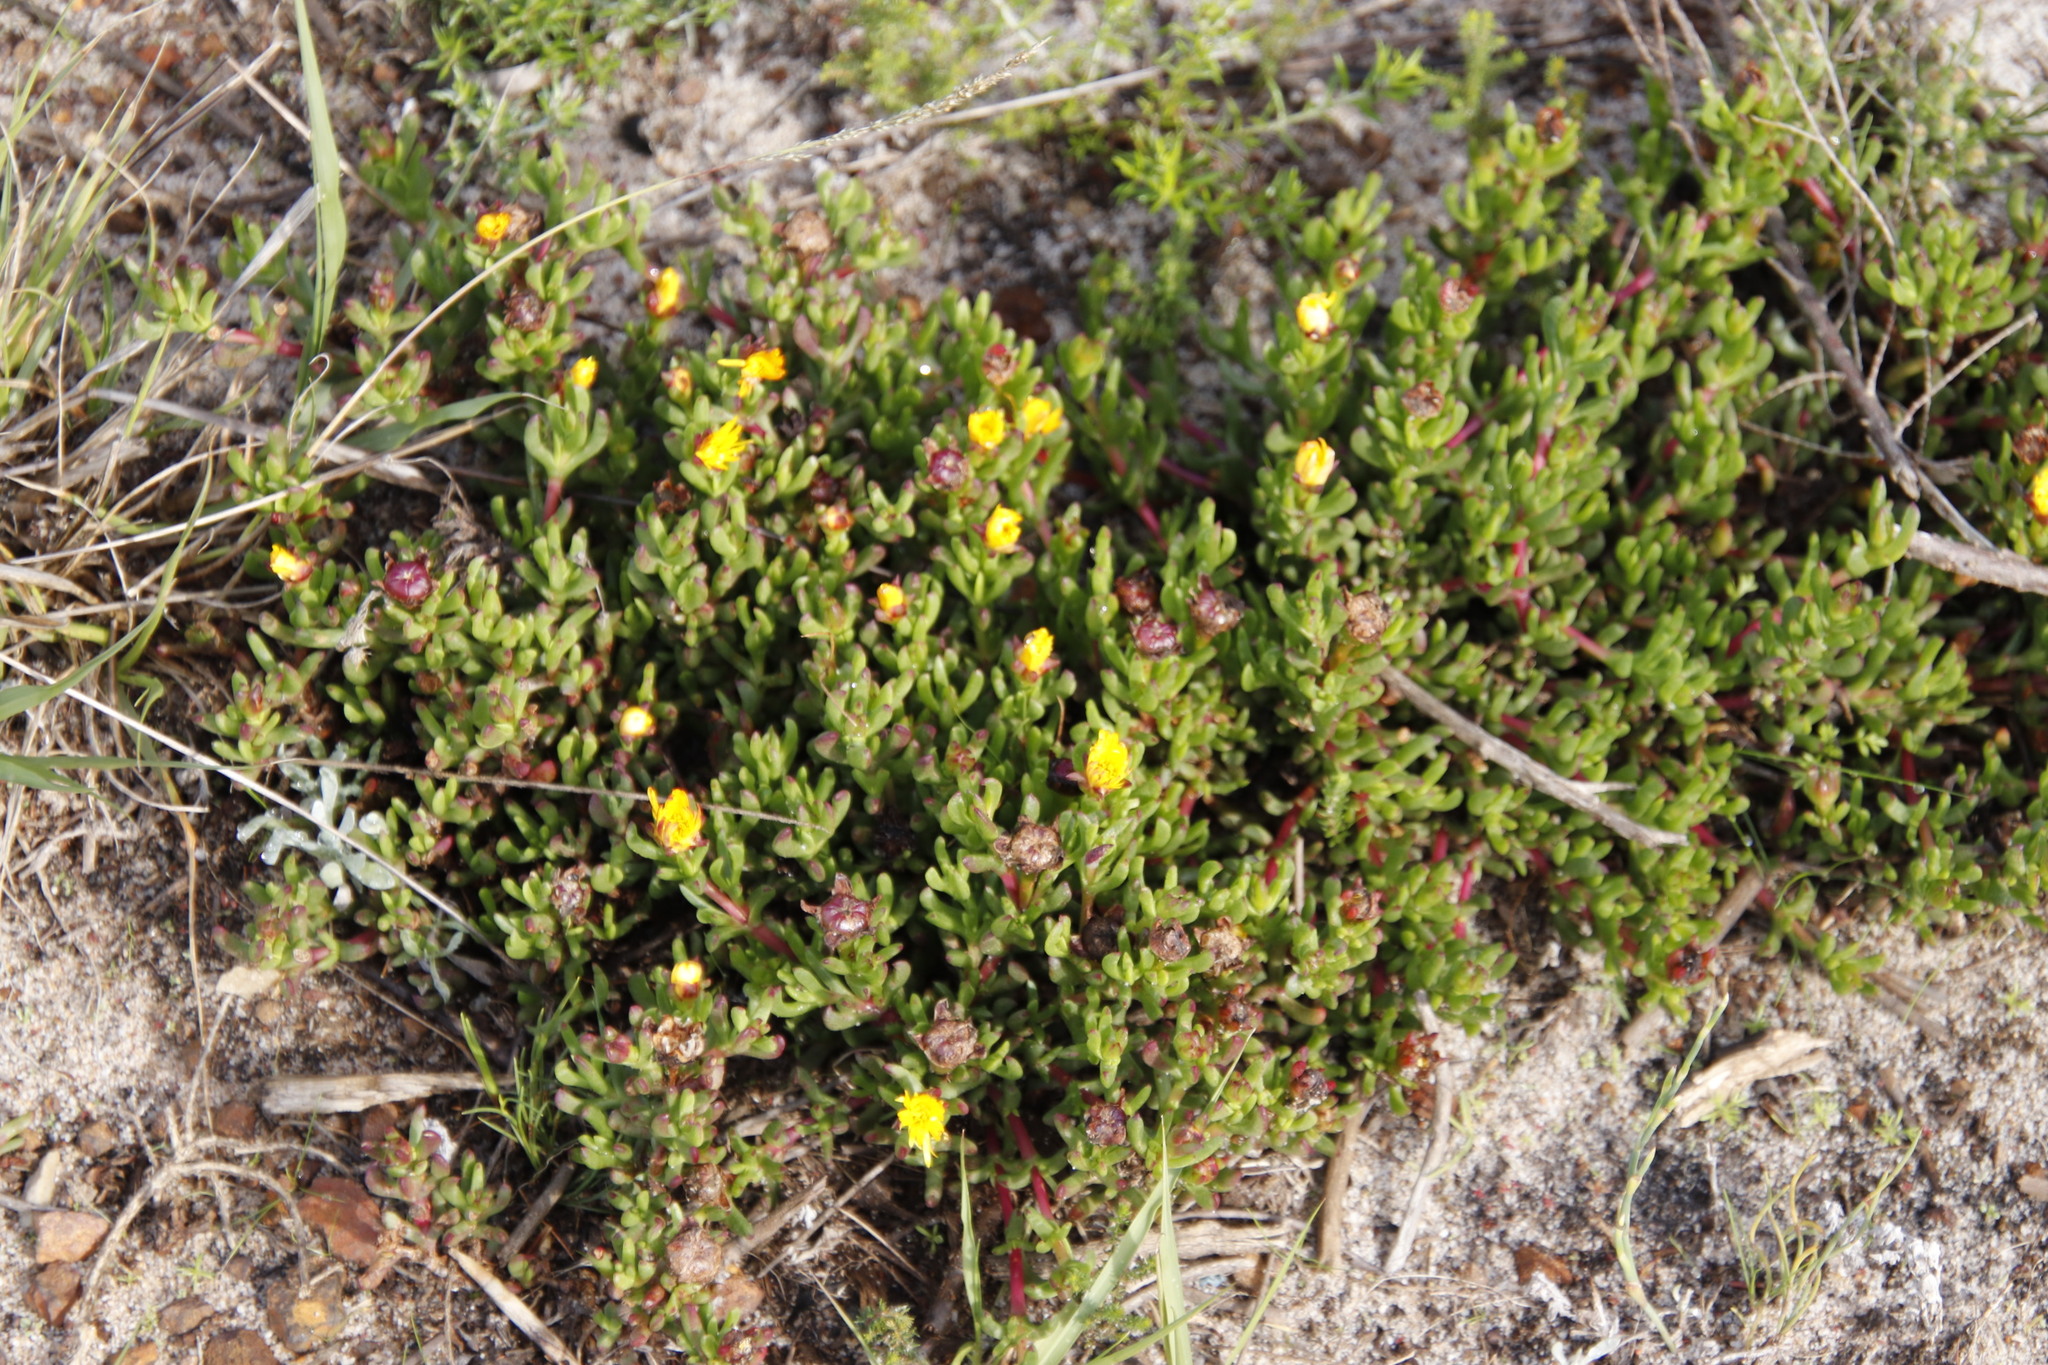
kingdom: Plantae
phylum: Tracheophyta
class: Magnoliopsida
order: Caryophyllales
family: Aizoaceae
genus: Lampranthus
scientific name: Lampranthus promontorii
